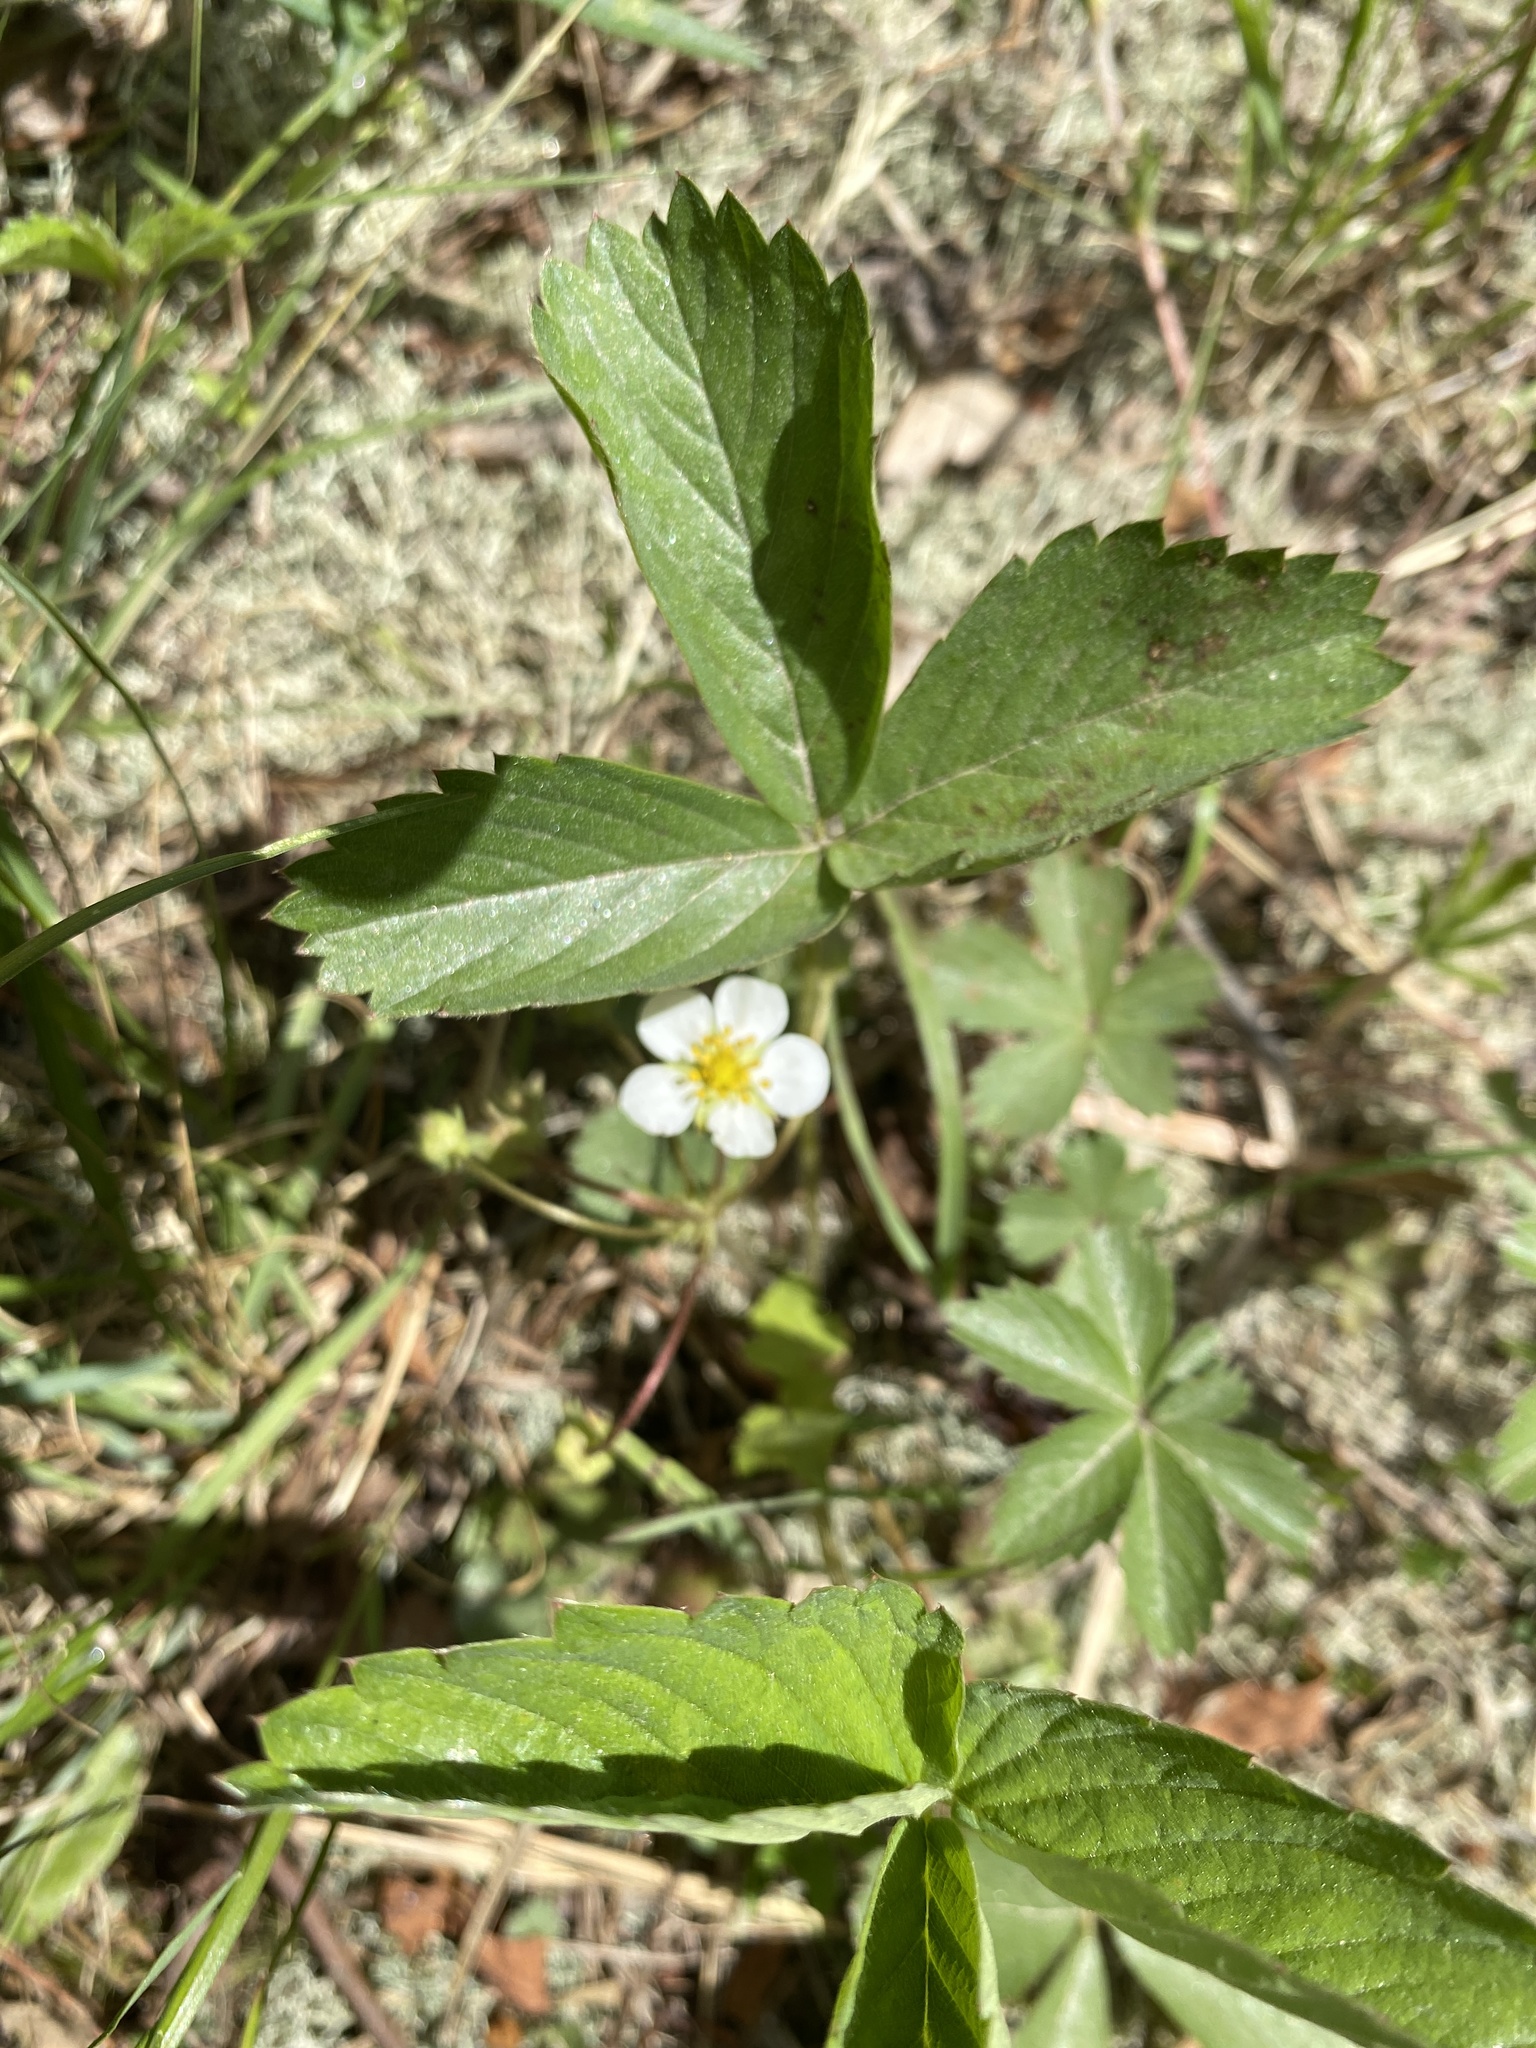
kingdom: Plantae
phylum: Tracheophyta
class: Magnoliopsida
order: Rosales
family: Rosaceae
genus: Fragaria
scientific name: Fragaria virginiana
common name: Thickleaved wild strawberry
